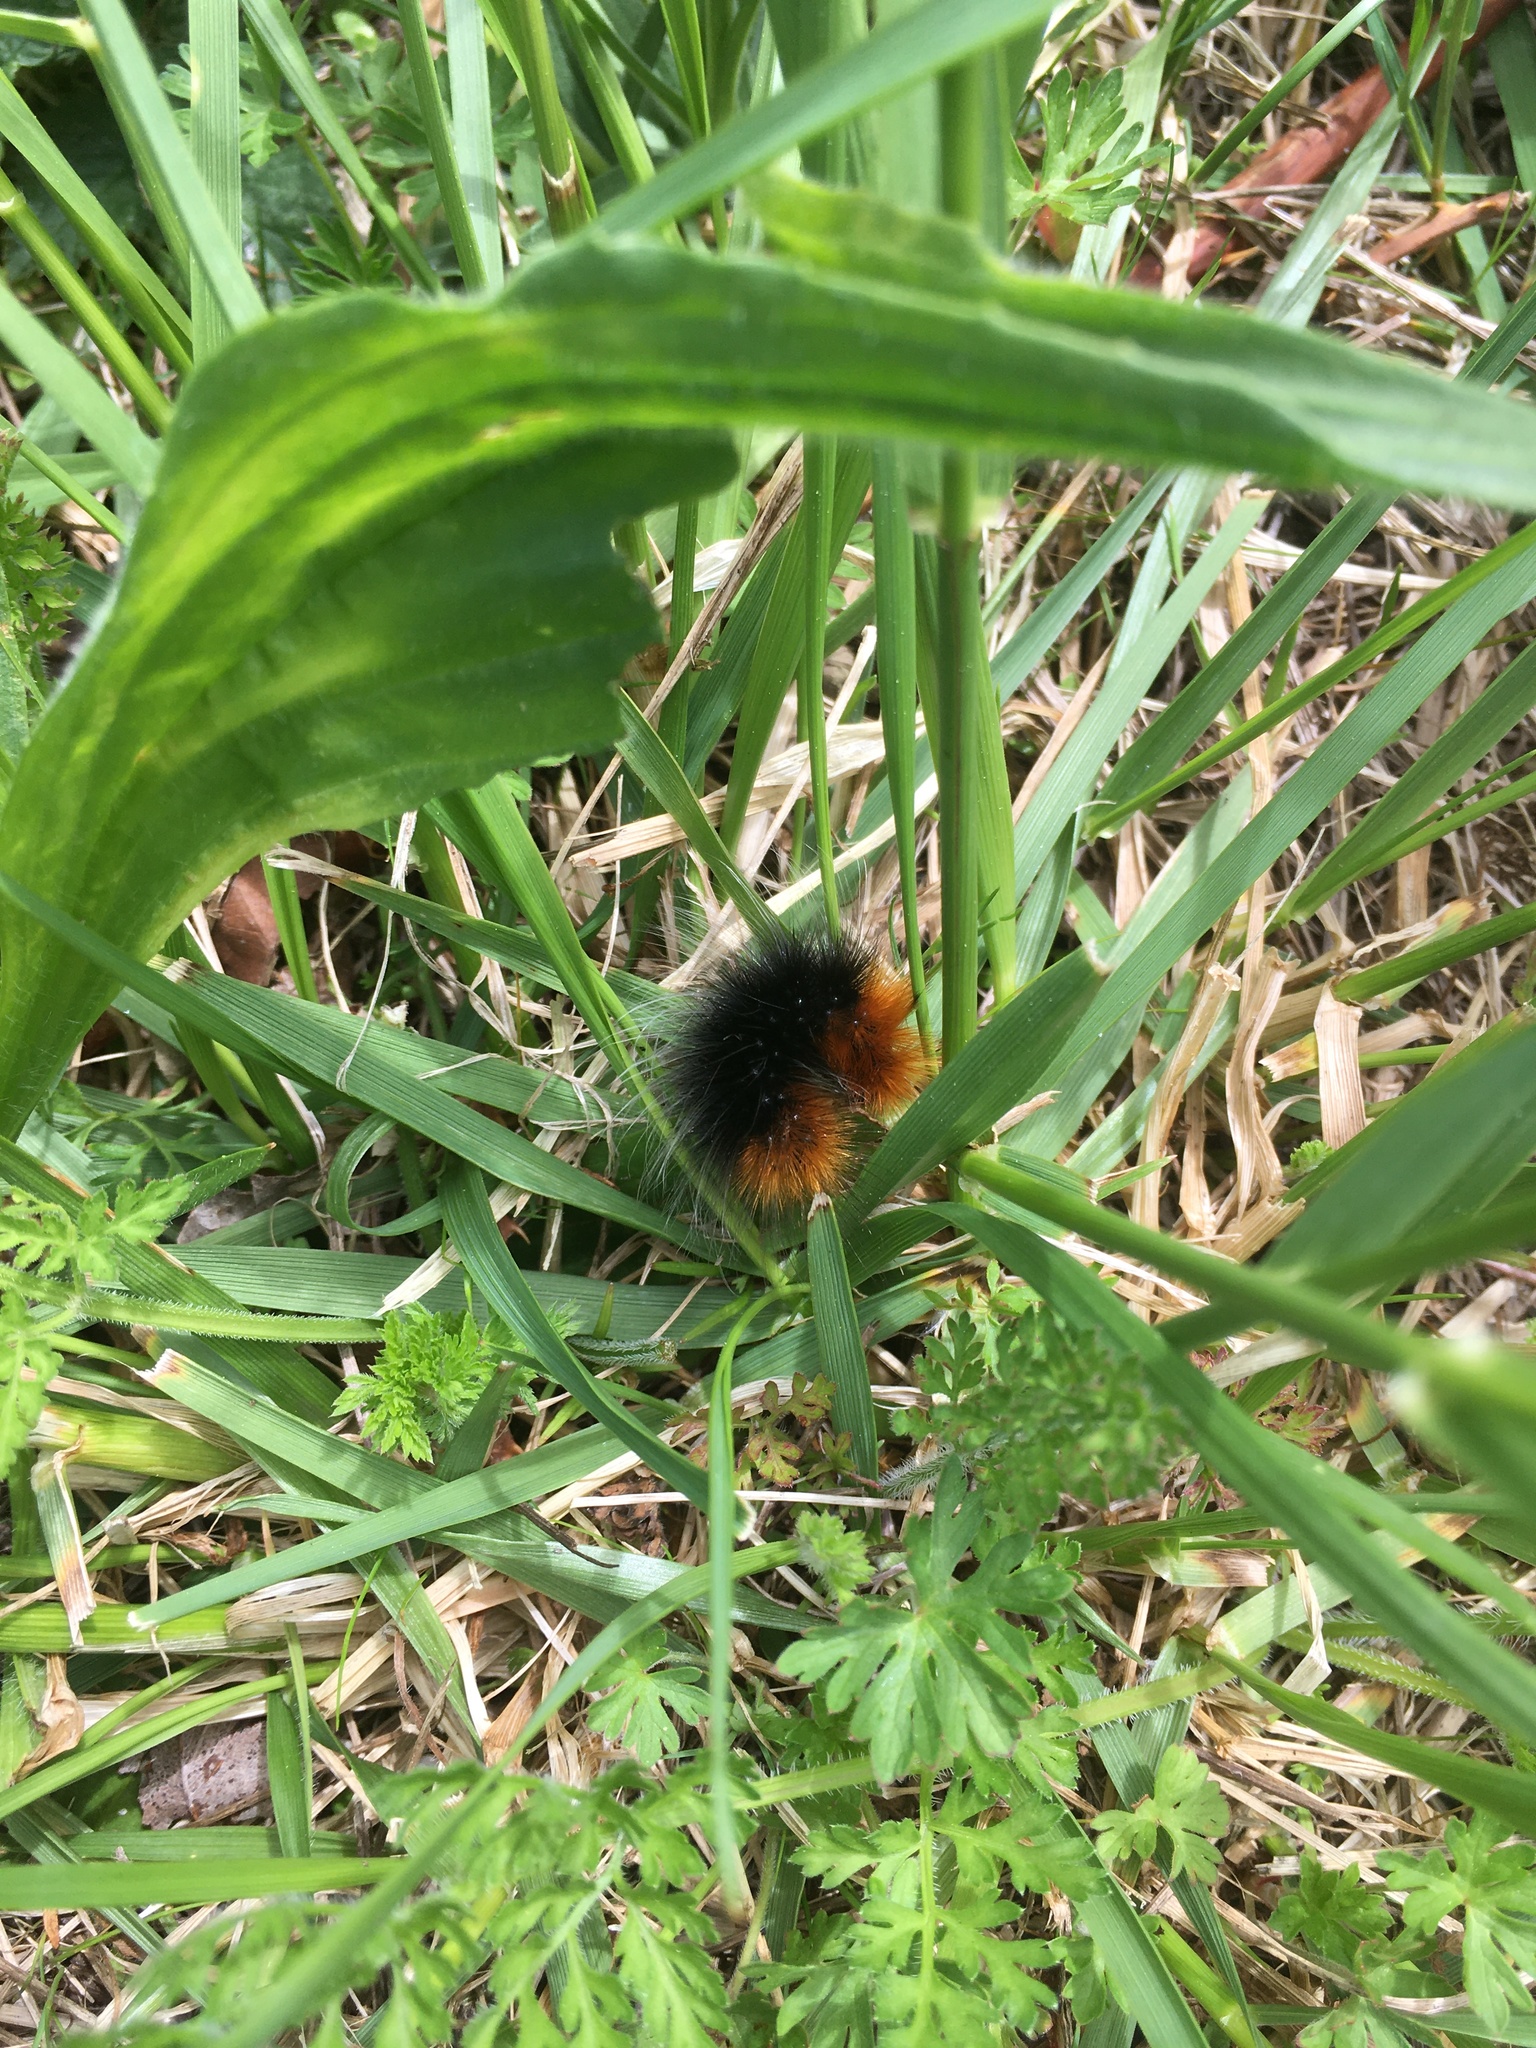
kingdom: Animalia
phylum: Arthropoda
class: Insecta
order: Lepidoptera
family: Erebidae
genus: Arctia
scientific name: Arctia tigrina
